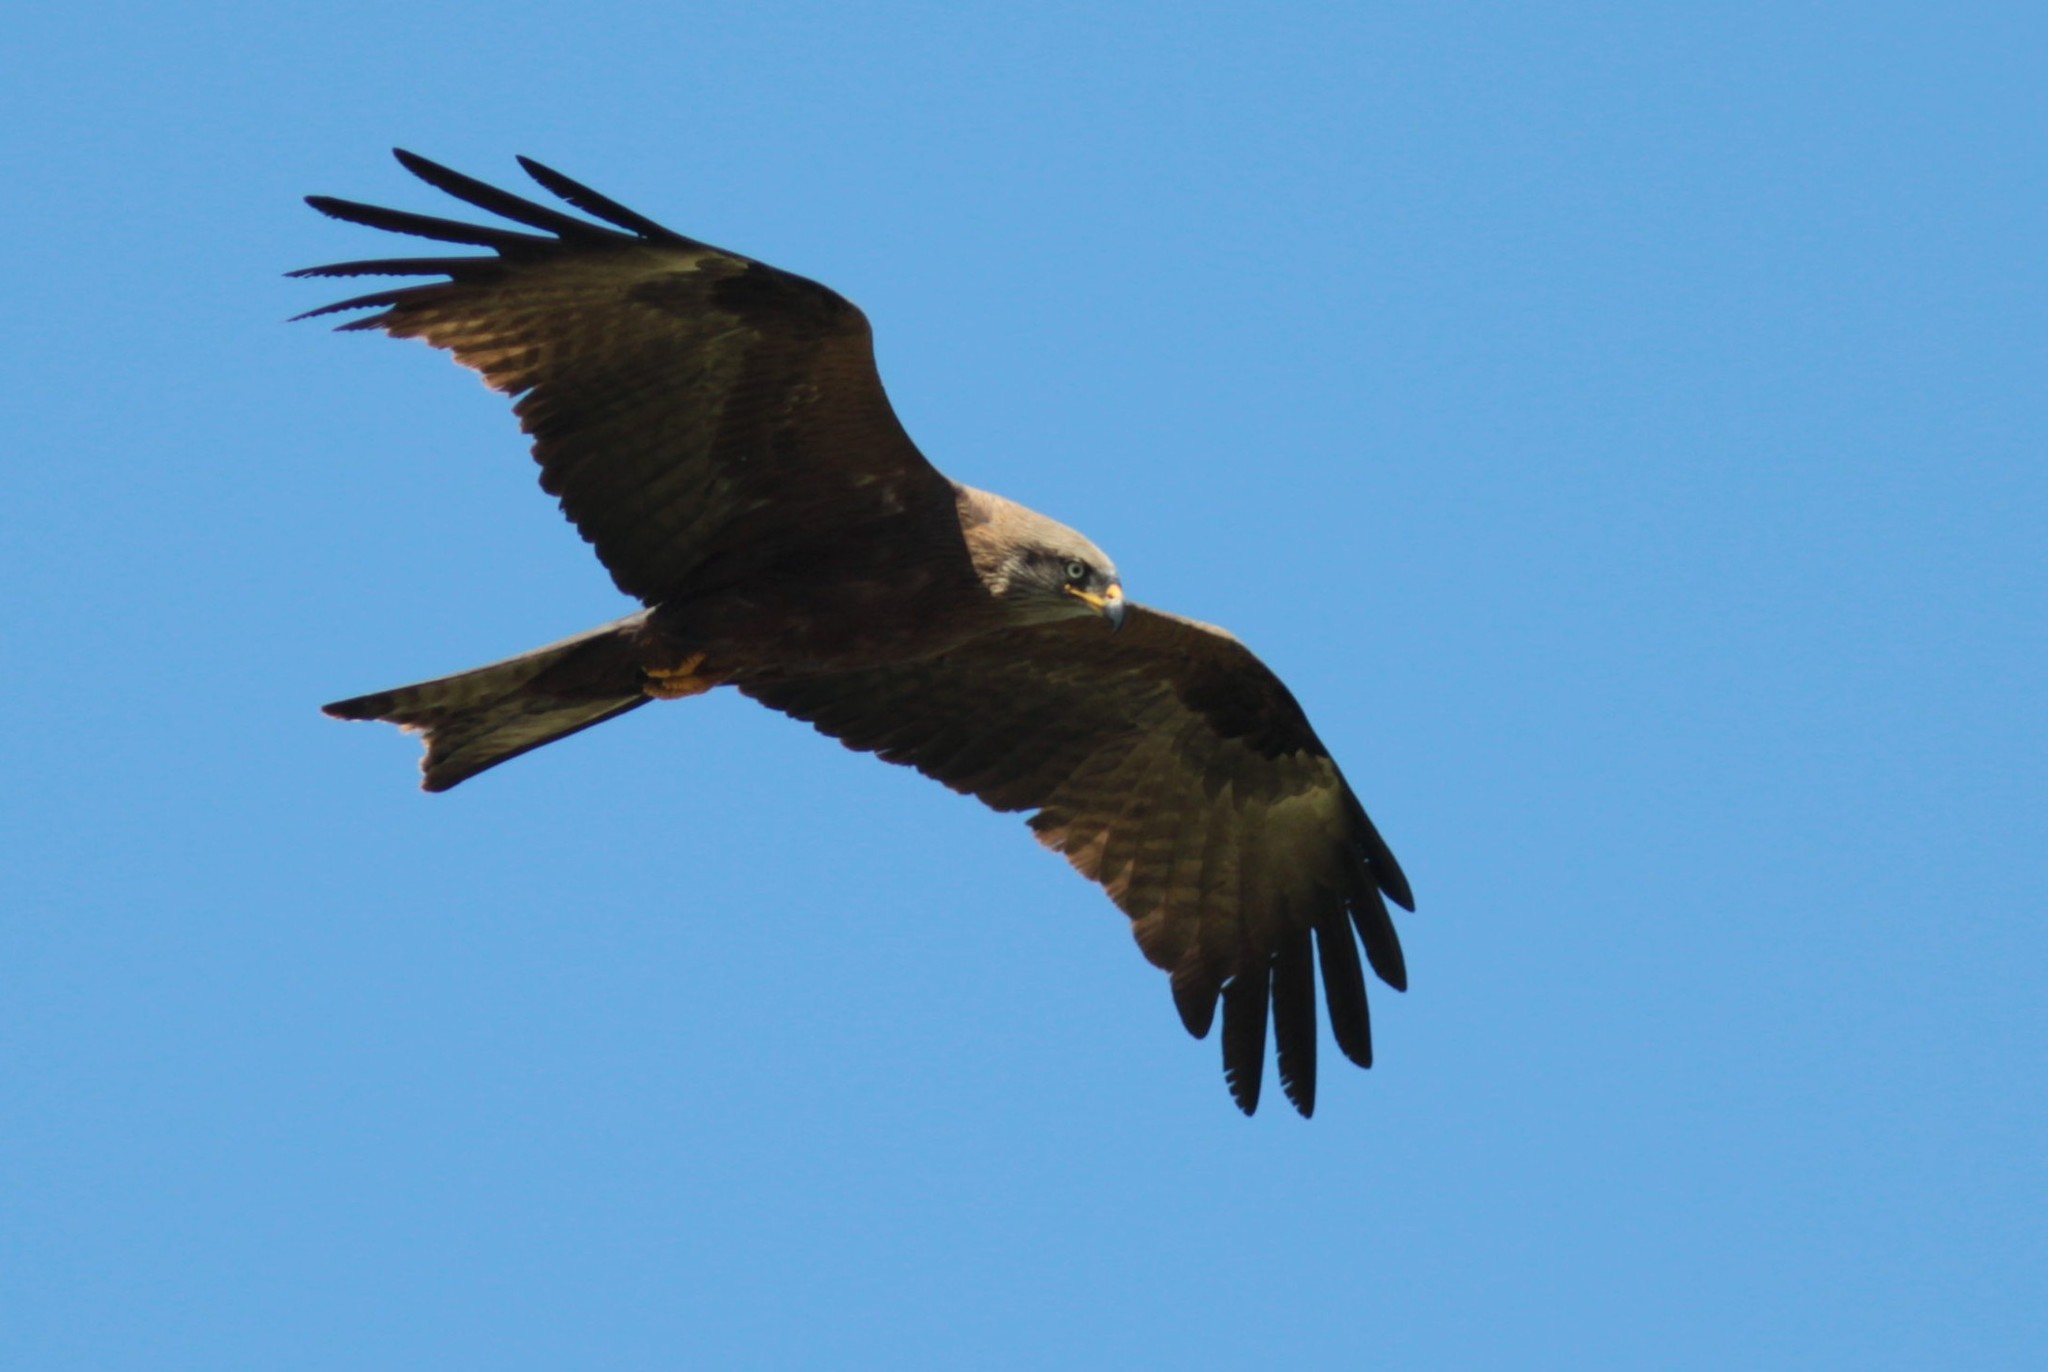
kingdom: Animalia
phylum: Chordata
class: Aves
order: Accipitriformes
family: Accipitridae
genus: Milvus
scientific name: Milvus migrans
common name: Black kite
